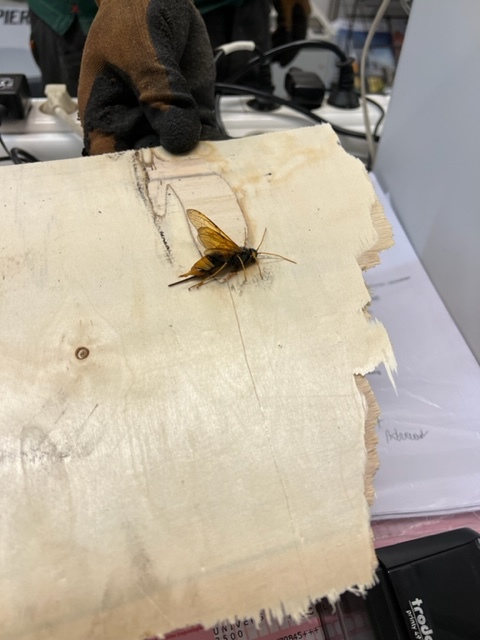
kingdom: Animalia
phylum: Arthropoda
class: Insecta
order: Hymenoptera
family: Siricidae
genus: Urocerus
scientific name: Urocerus gigas
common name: Giant woodwasp
